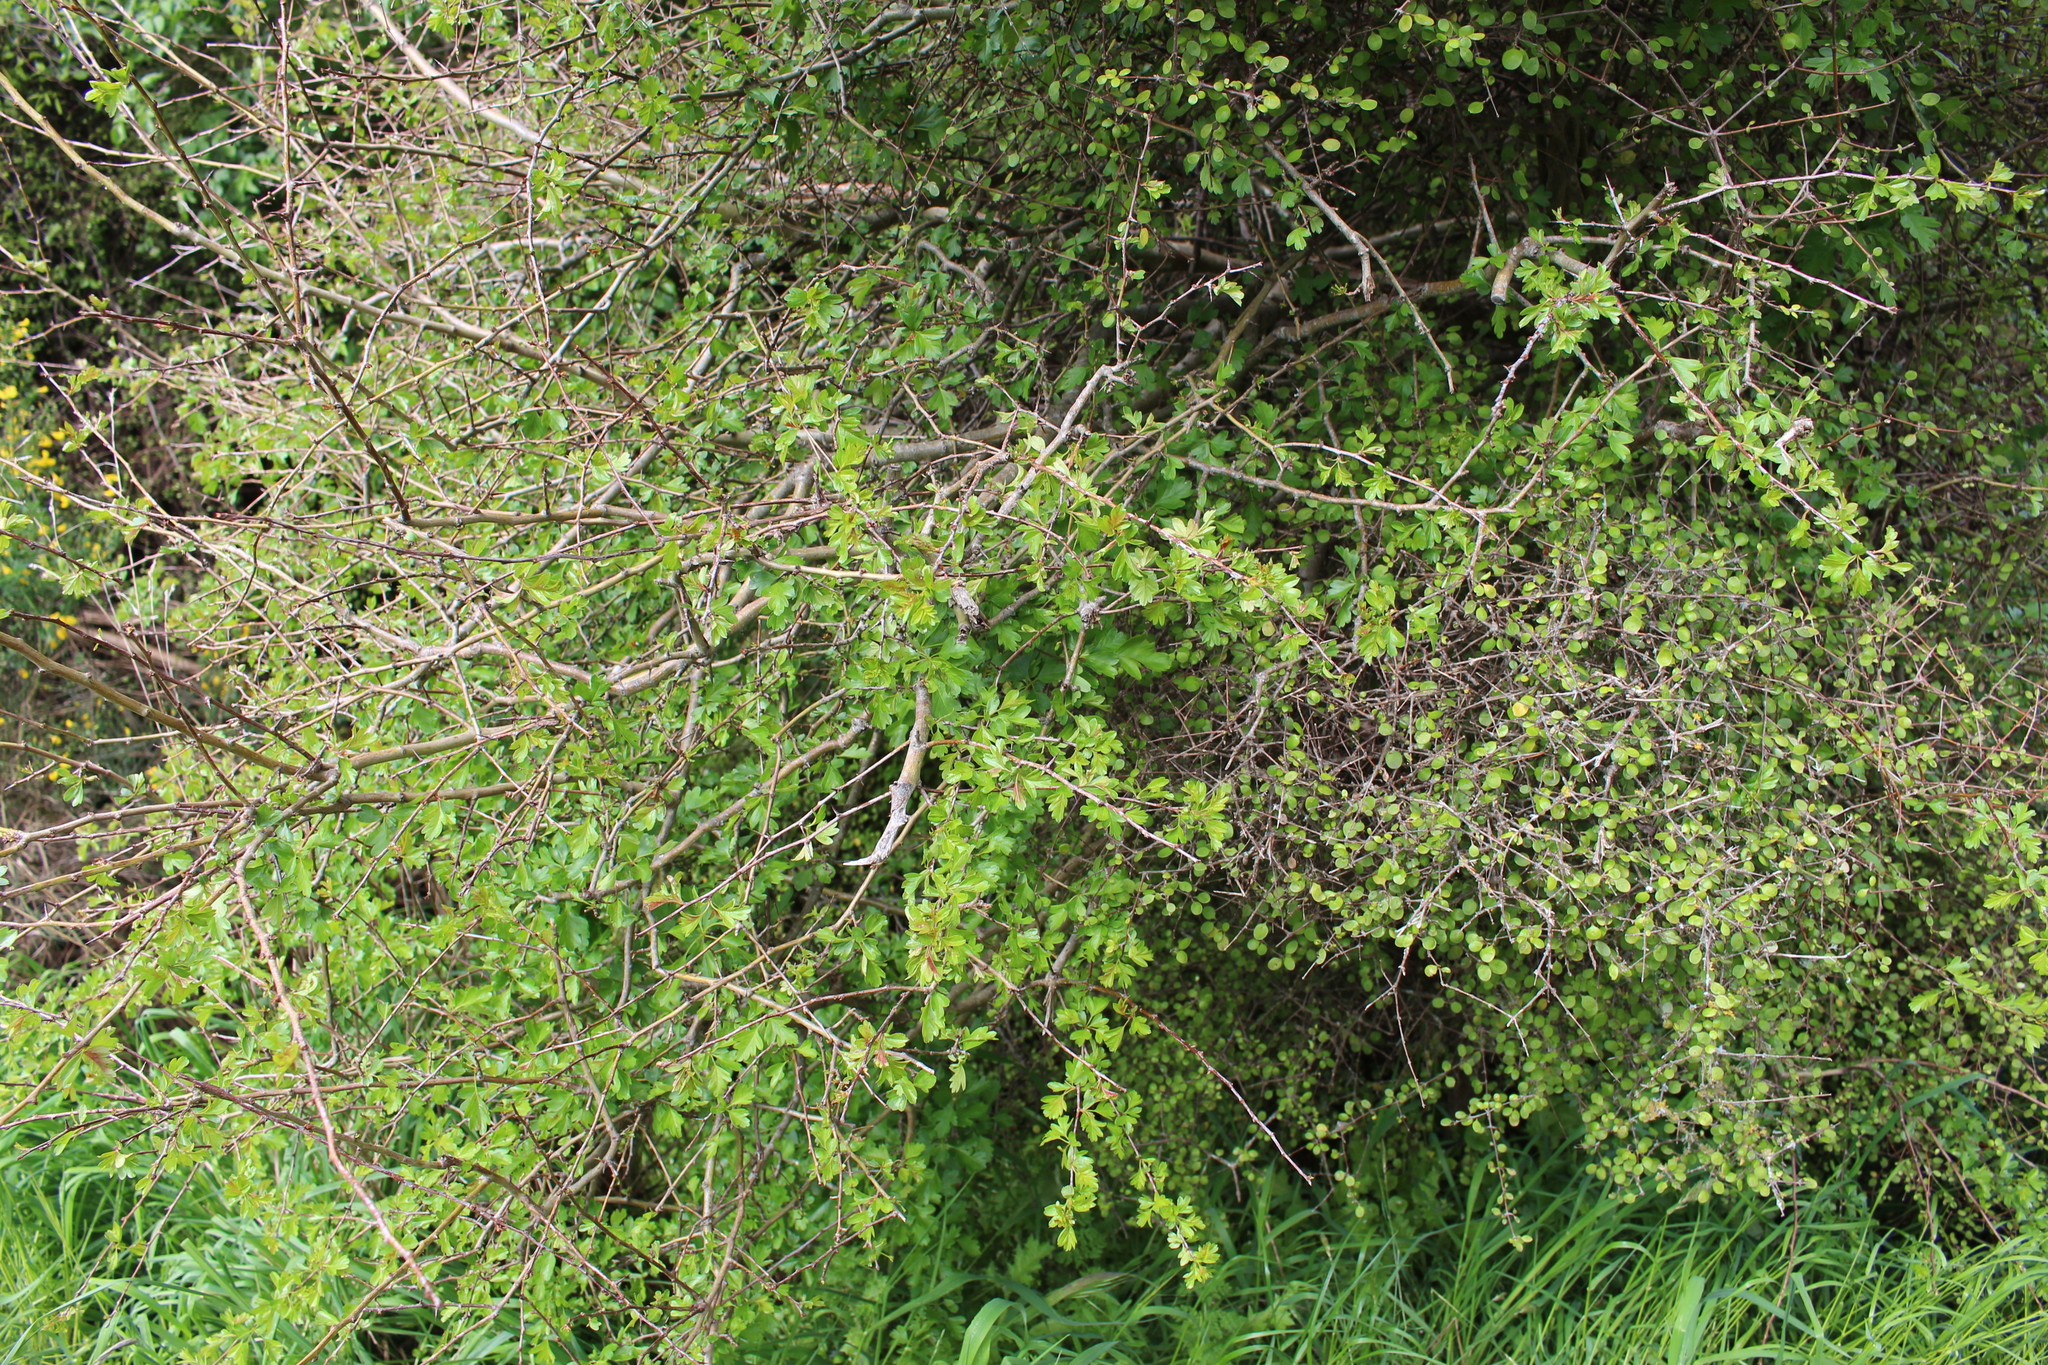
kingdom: Plantae
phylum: Tracheophyta
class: Magnoliopsida
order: Rosales
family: Rosaceae
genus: Crataegus
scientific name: Crataegus monogyna
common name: Hawthorn
